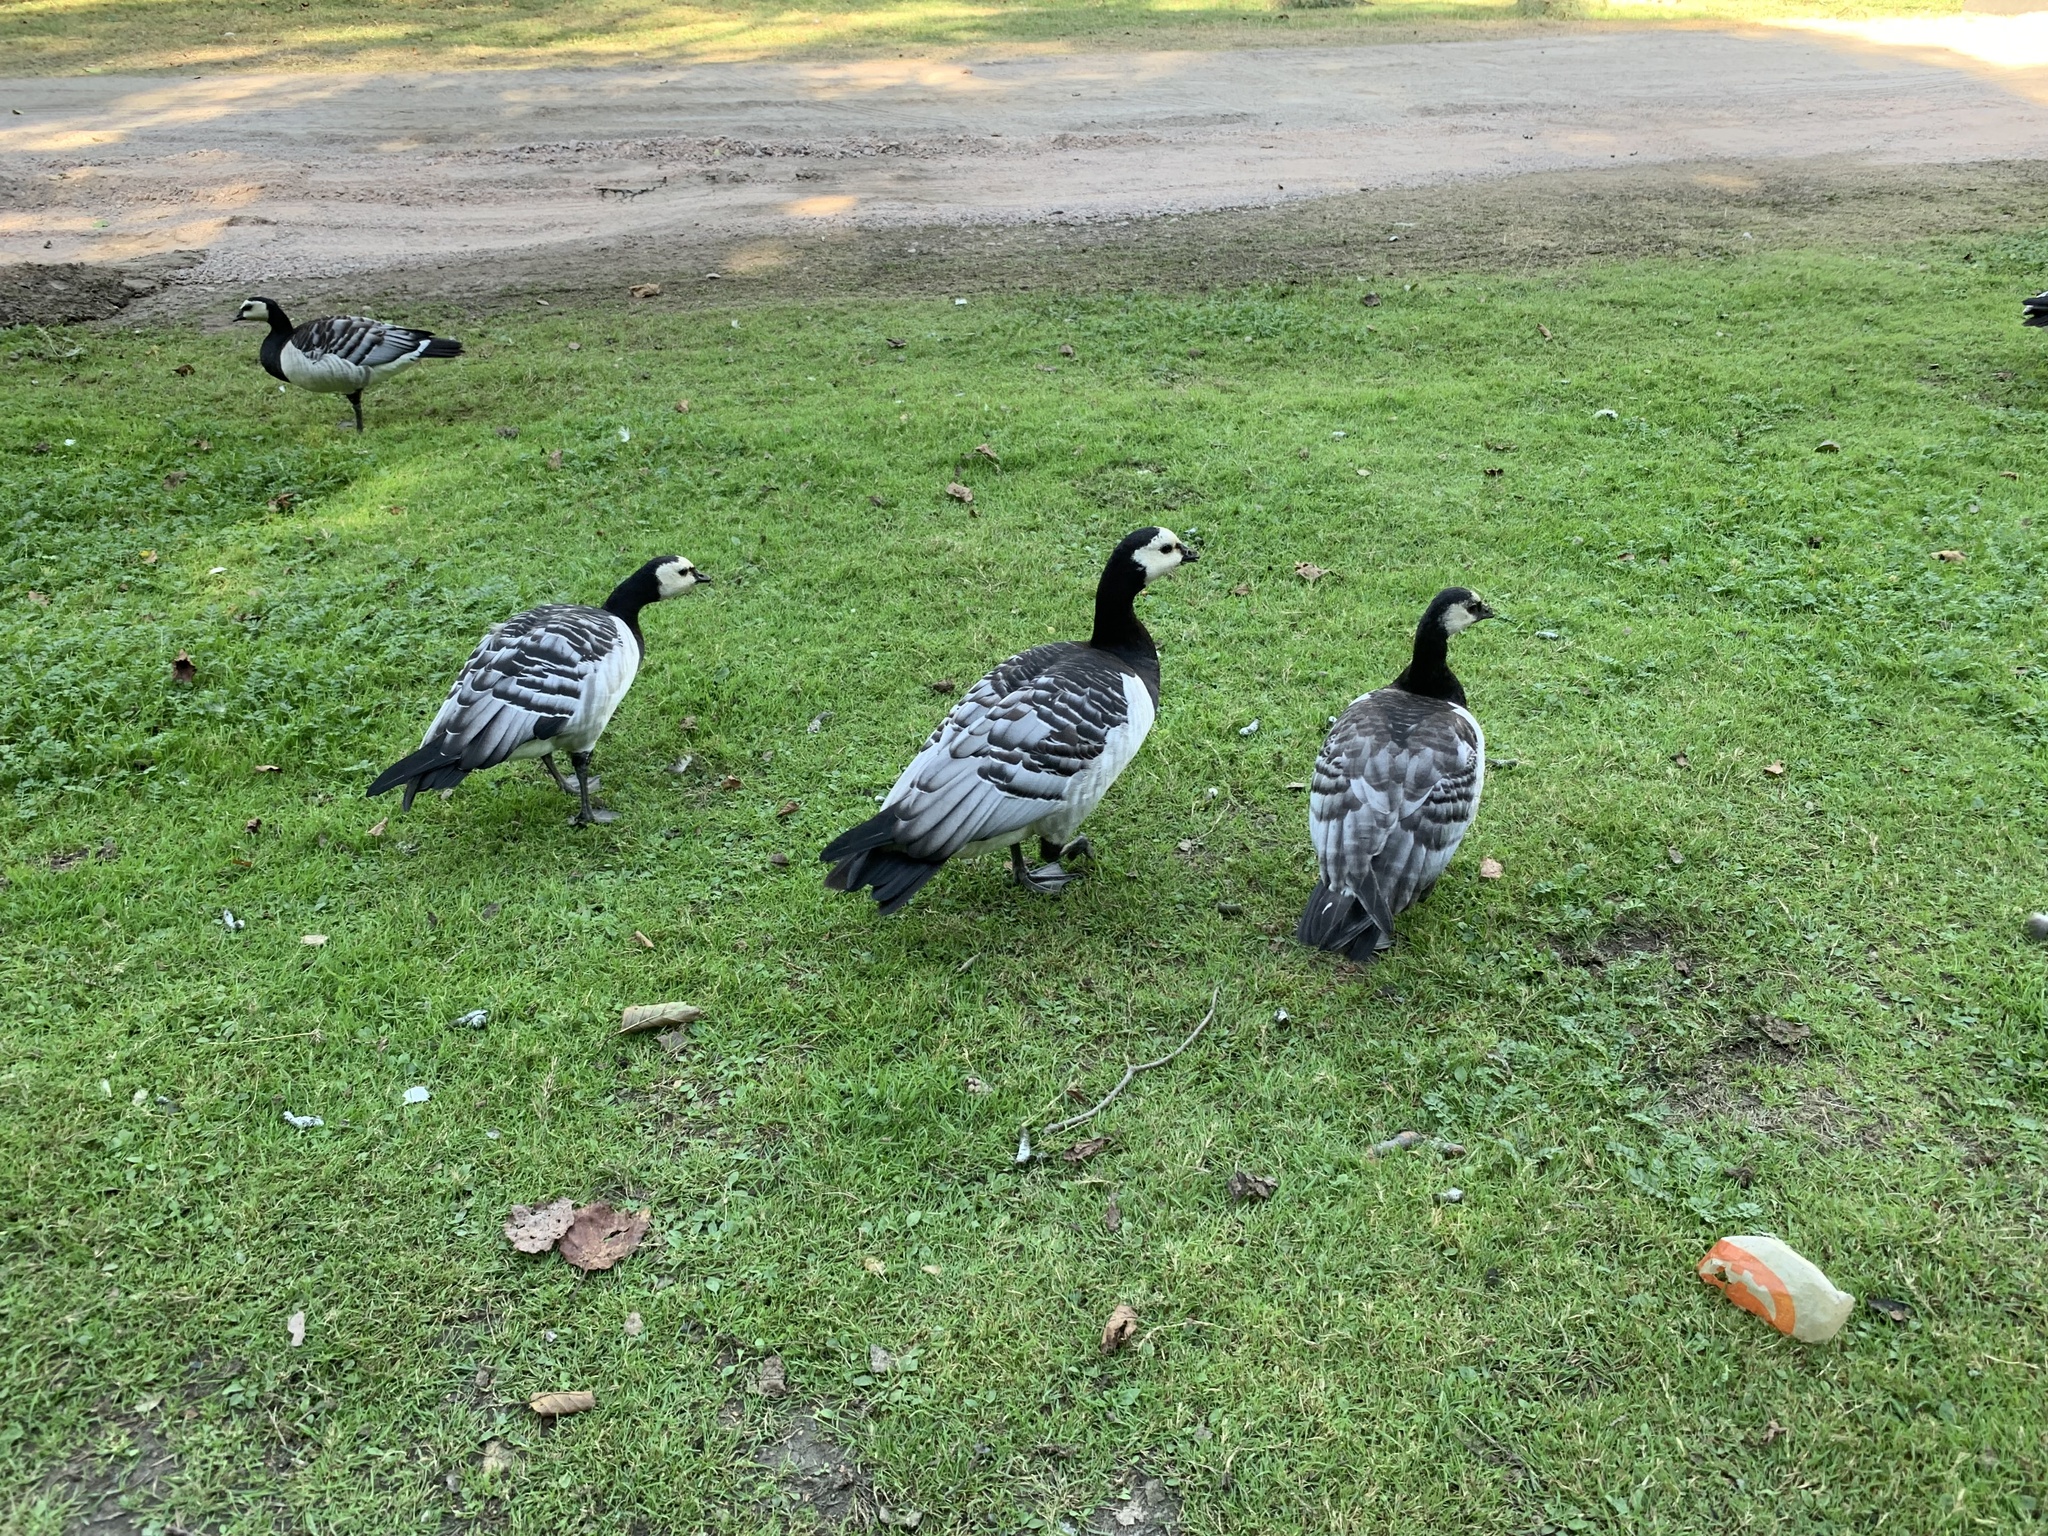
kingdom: Animalia
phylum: Chordata
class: Aves
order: Anseriformes
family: Anatidae
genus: Branta
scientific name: Branta leucopsis
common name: Barnacle goose
